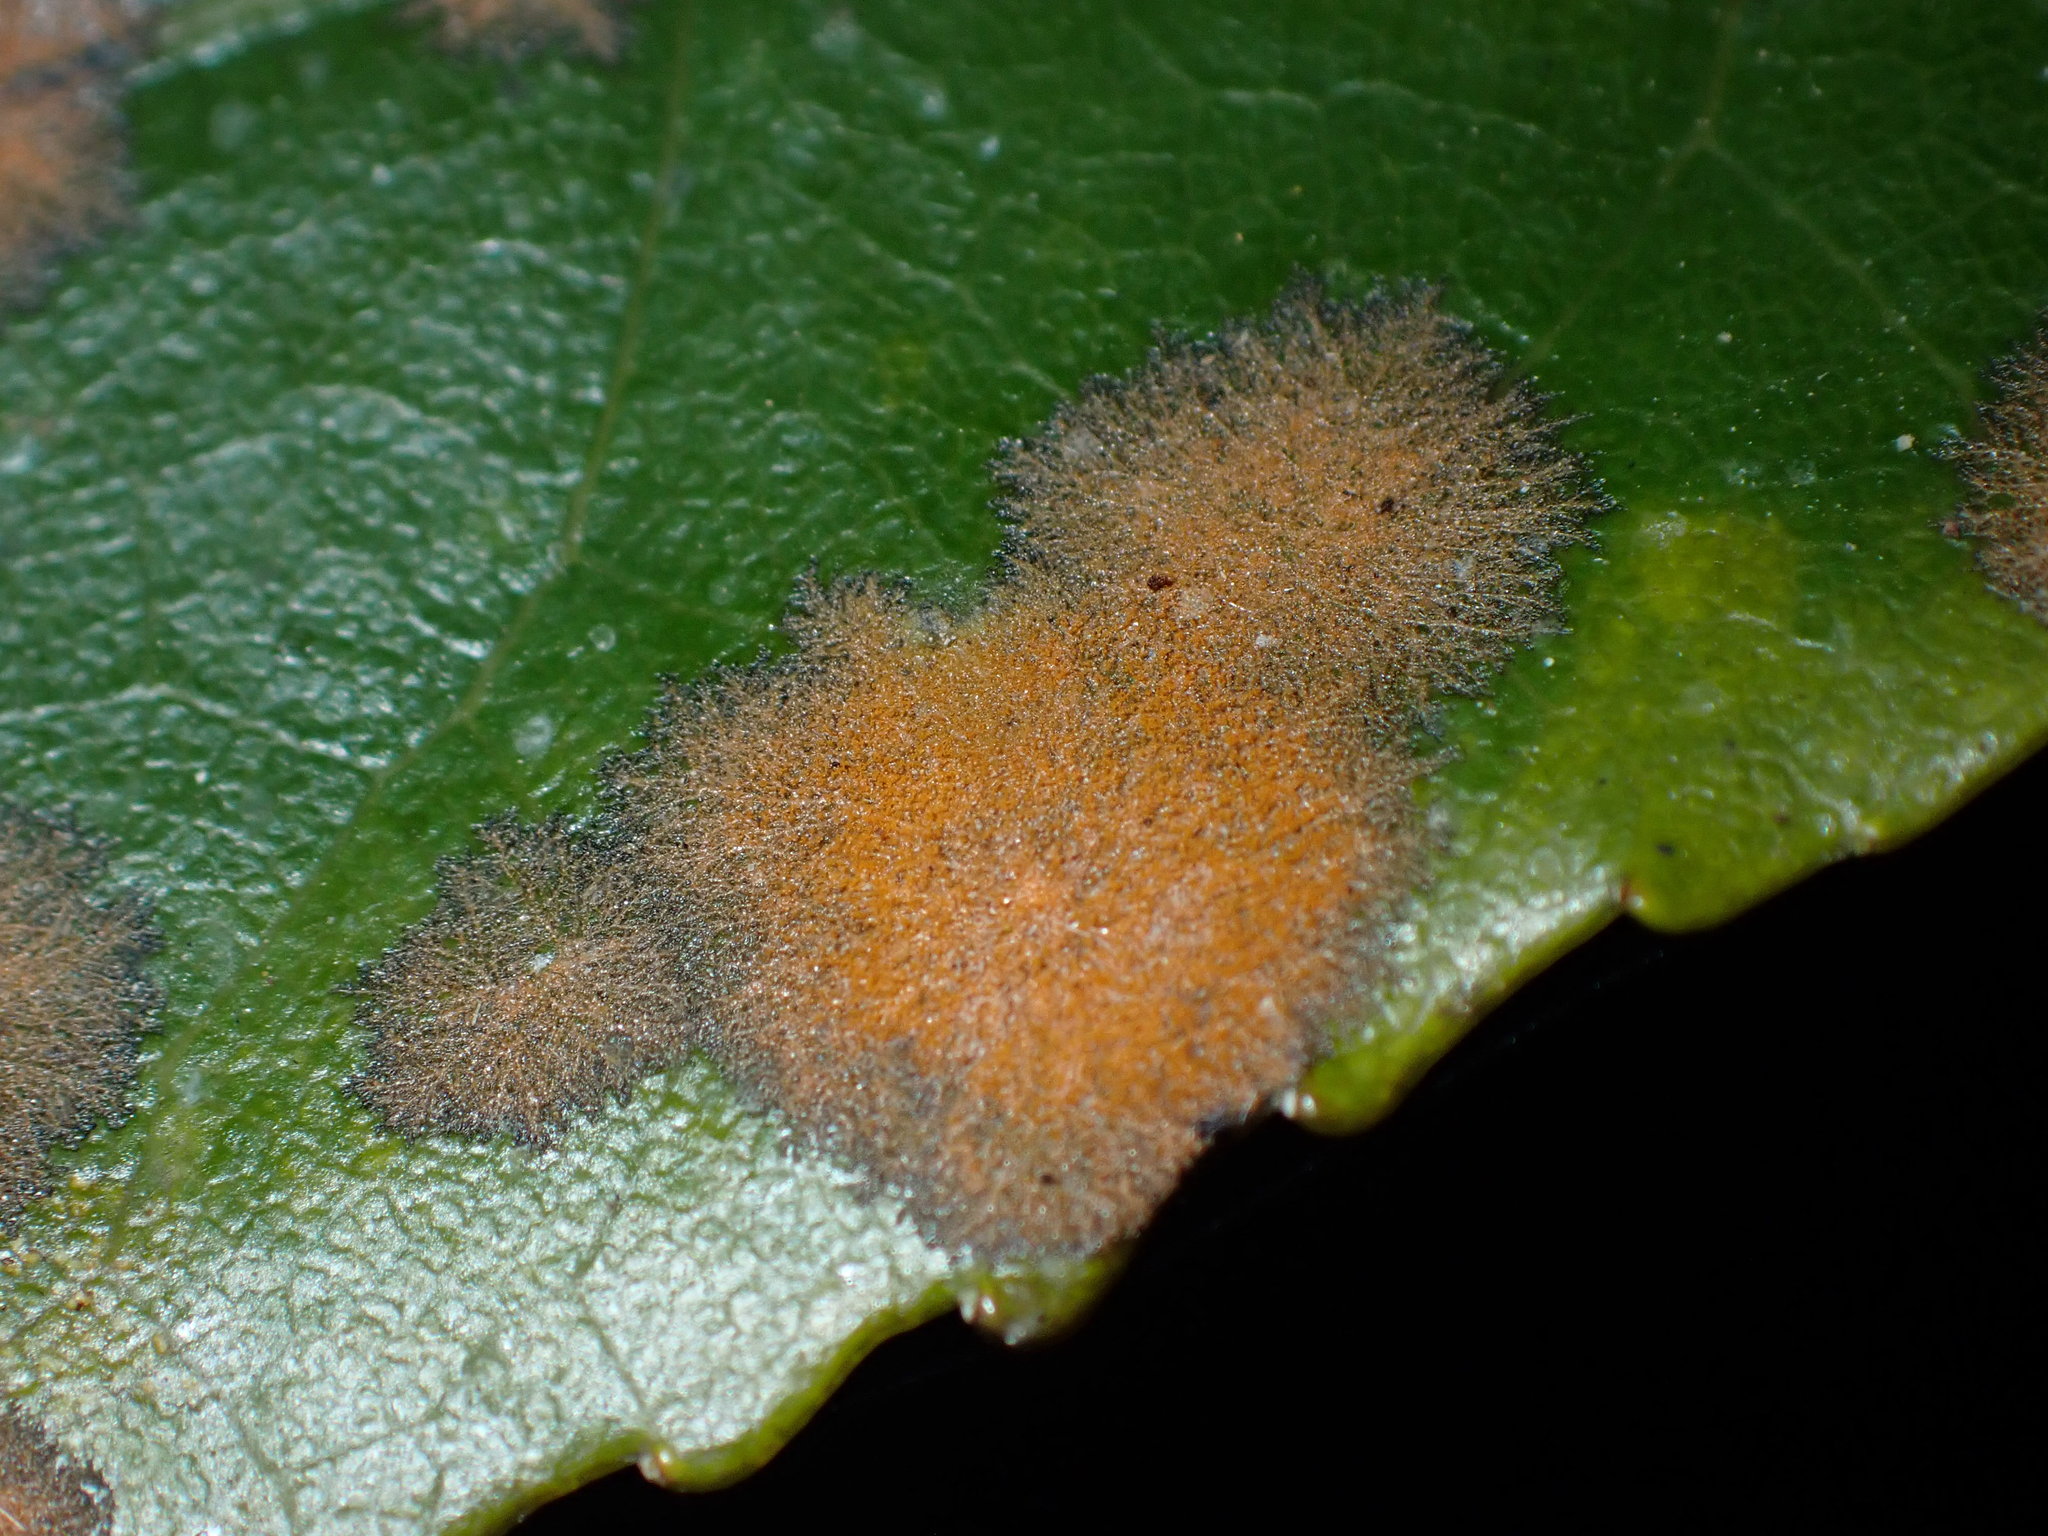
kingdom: Plantae
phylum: Chlorophyta
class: Ulvophyceae
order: Trentepohliales
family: Trentepohliaceae
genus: Cephaleuros
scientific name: Cephaleuros
